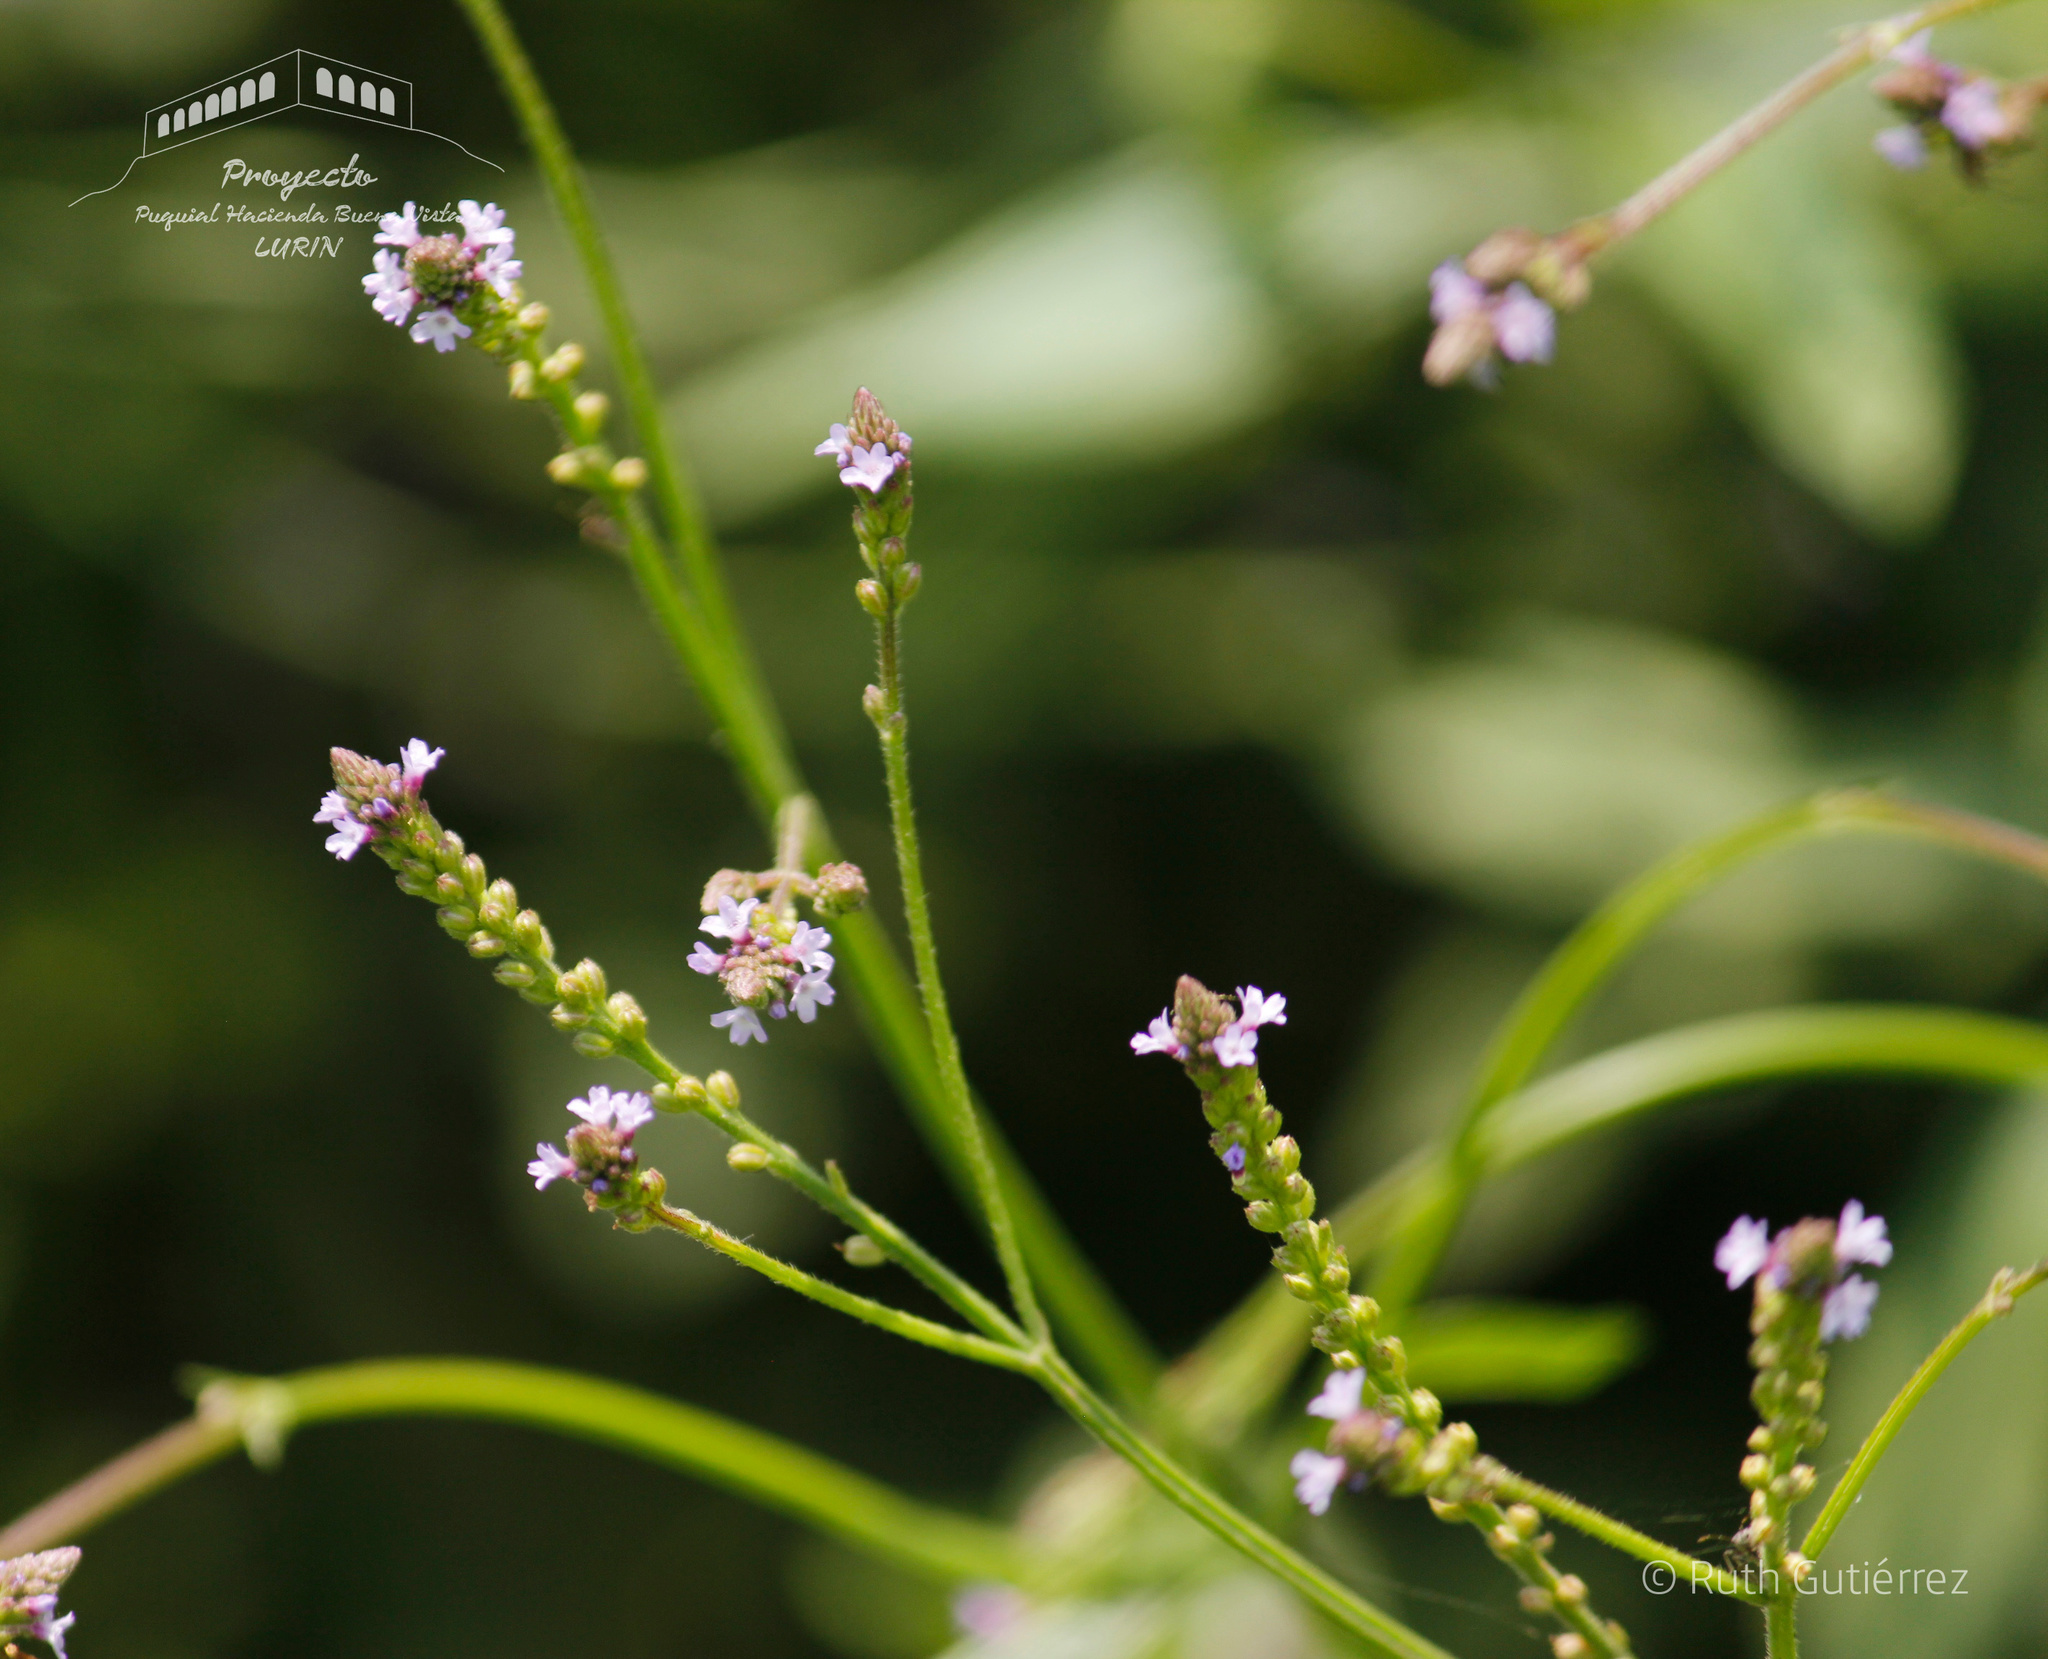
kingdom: Plantae
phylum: Tracheophyta
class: Magnoliopsida
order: Lamiales
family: Verbenaceae
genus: Verbena
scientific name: Verbena litoralis
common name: Seashore vervain
